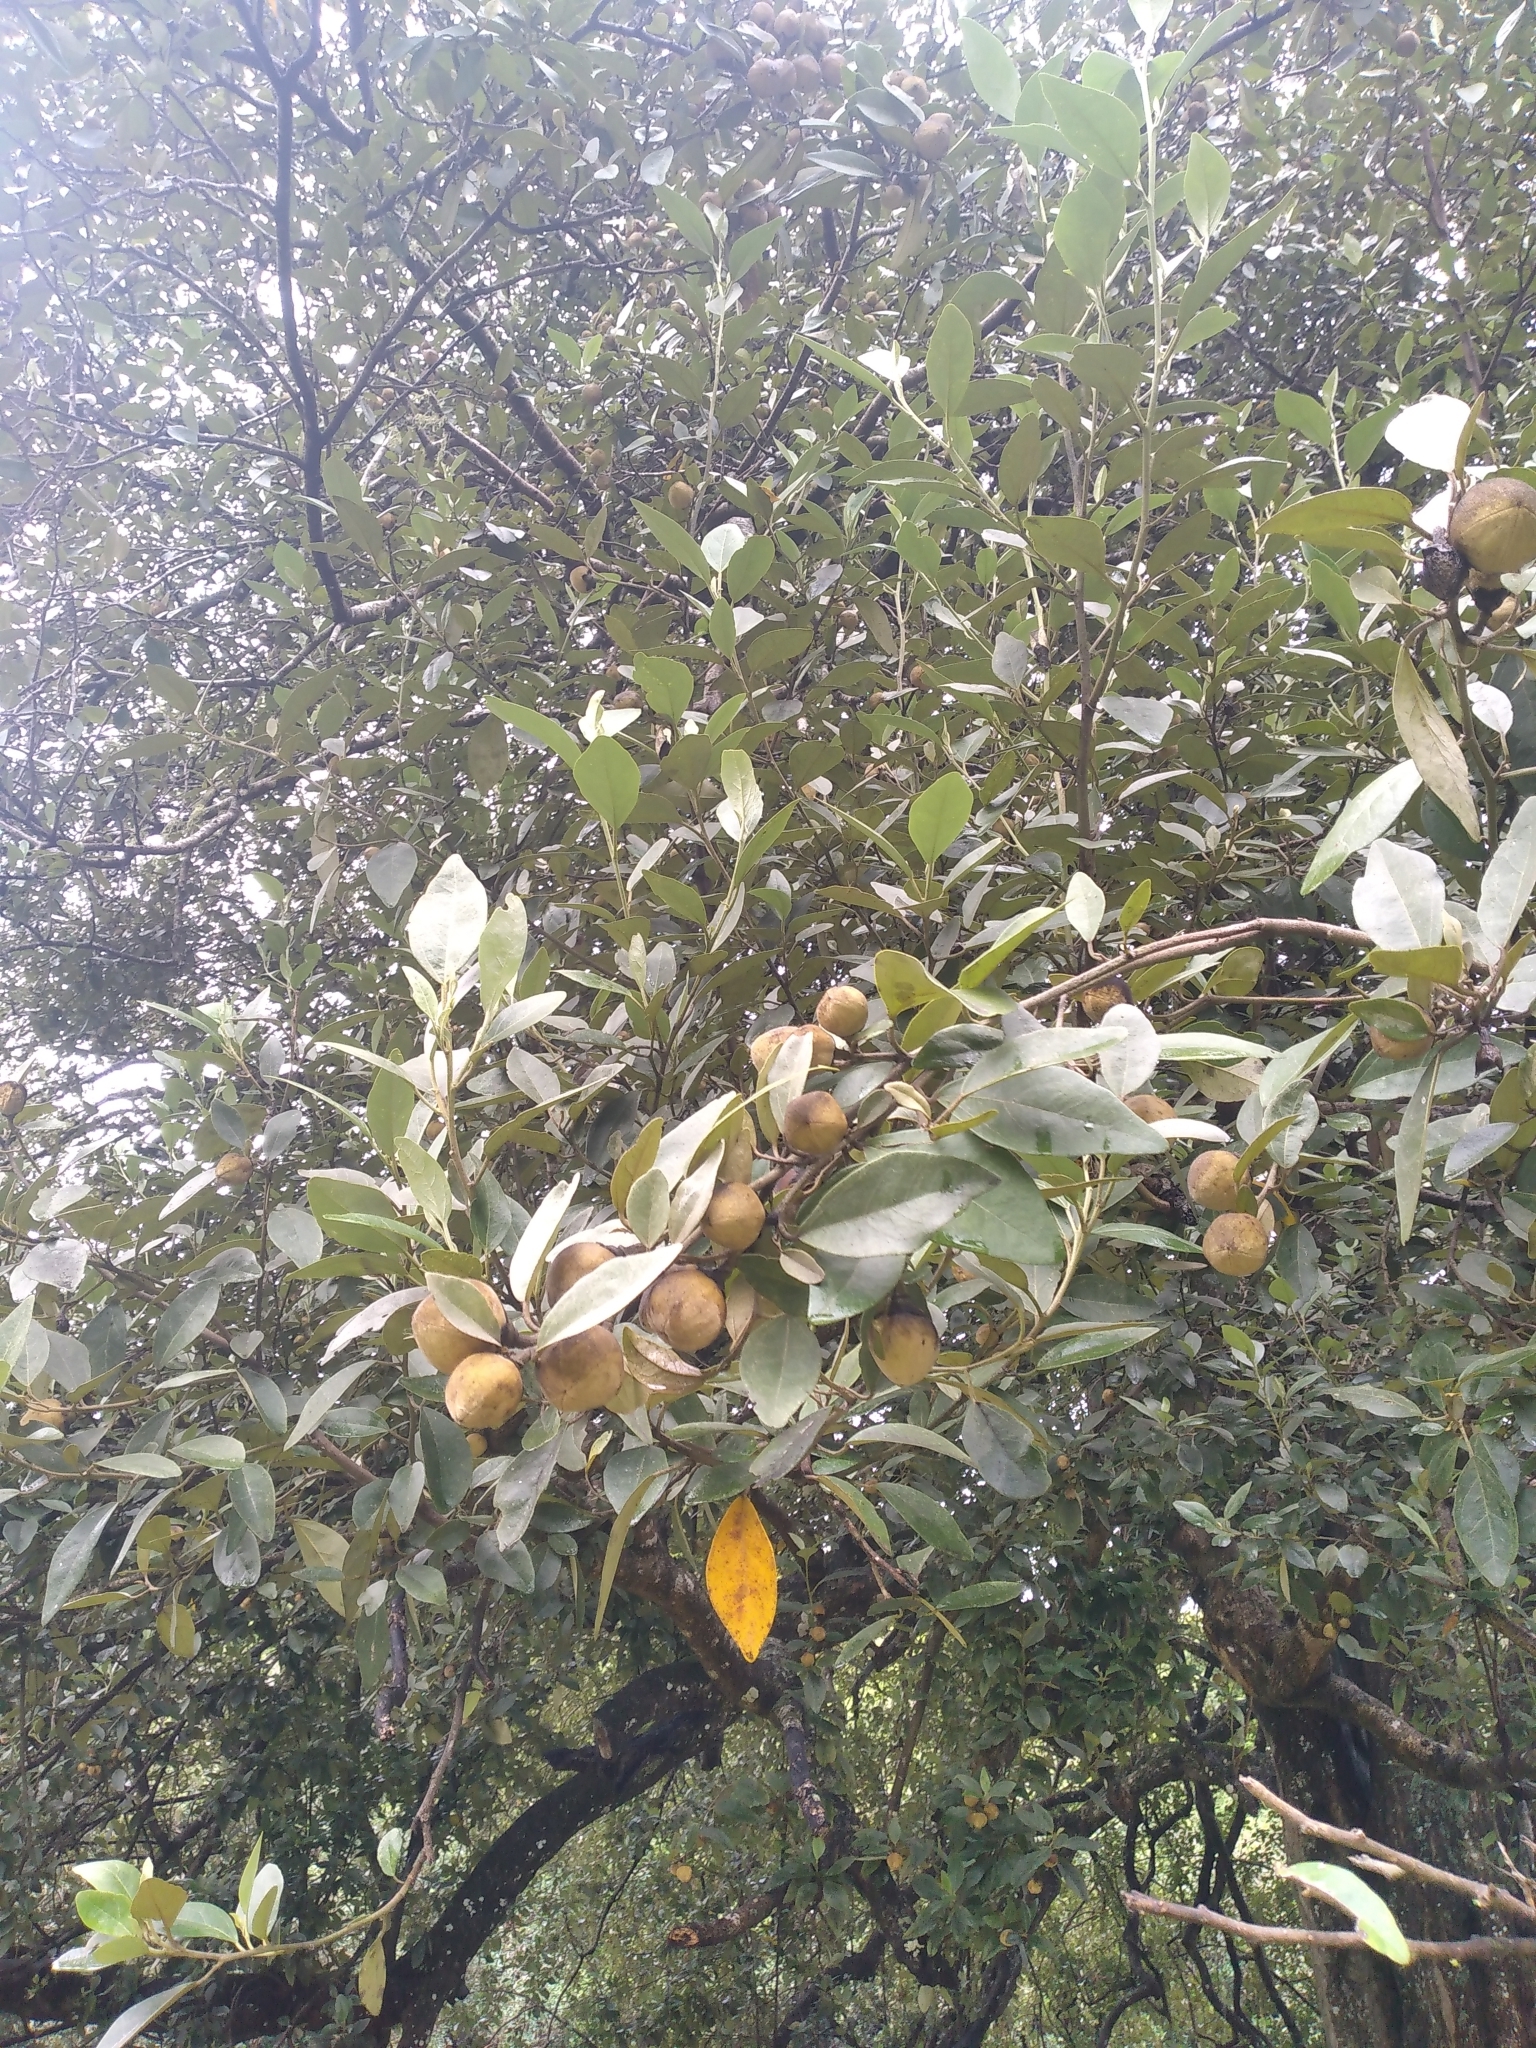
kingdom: Plantae
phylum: Tracheophyta
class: Magnoliopsida
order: Malvales
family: Malvaceae
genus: Lagunaria
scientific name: Lagunaria patersonia
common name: Cow itch tree
